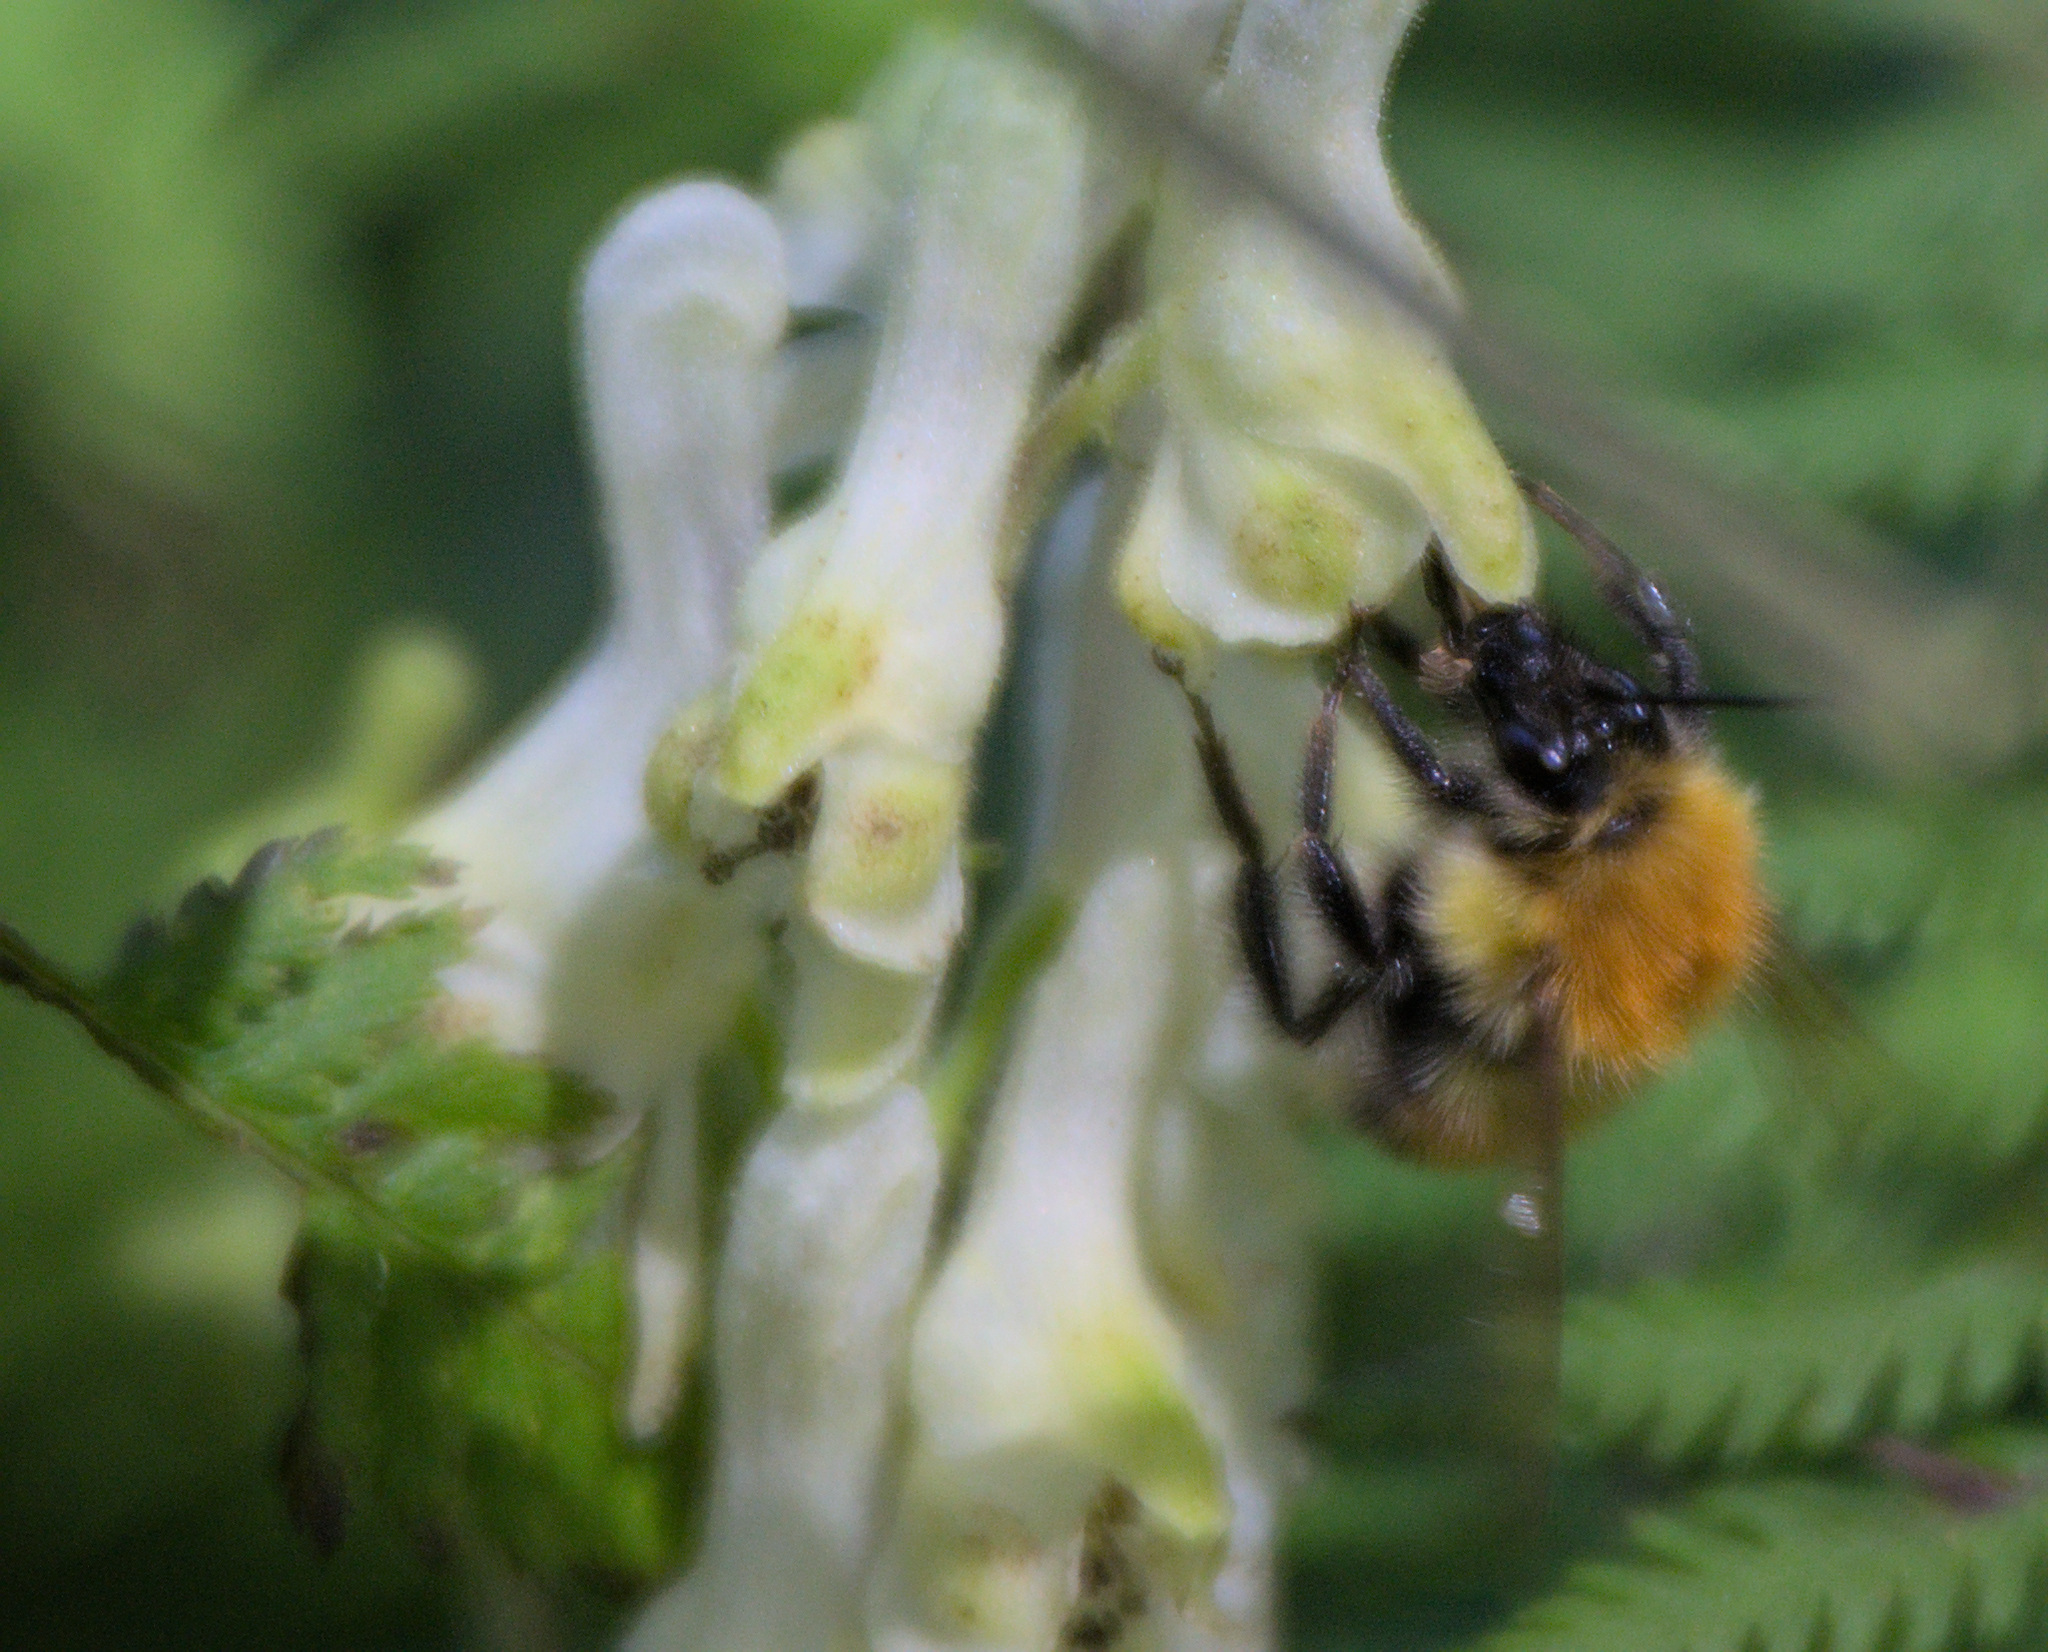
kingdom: Animalia
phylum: Arthropoda
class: Insecta
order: Hymenoptera
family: Apidae
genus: Bombus
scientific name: Bombus consobrinus
